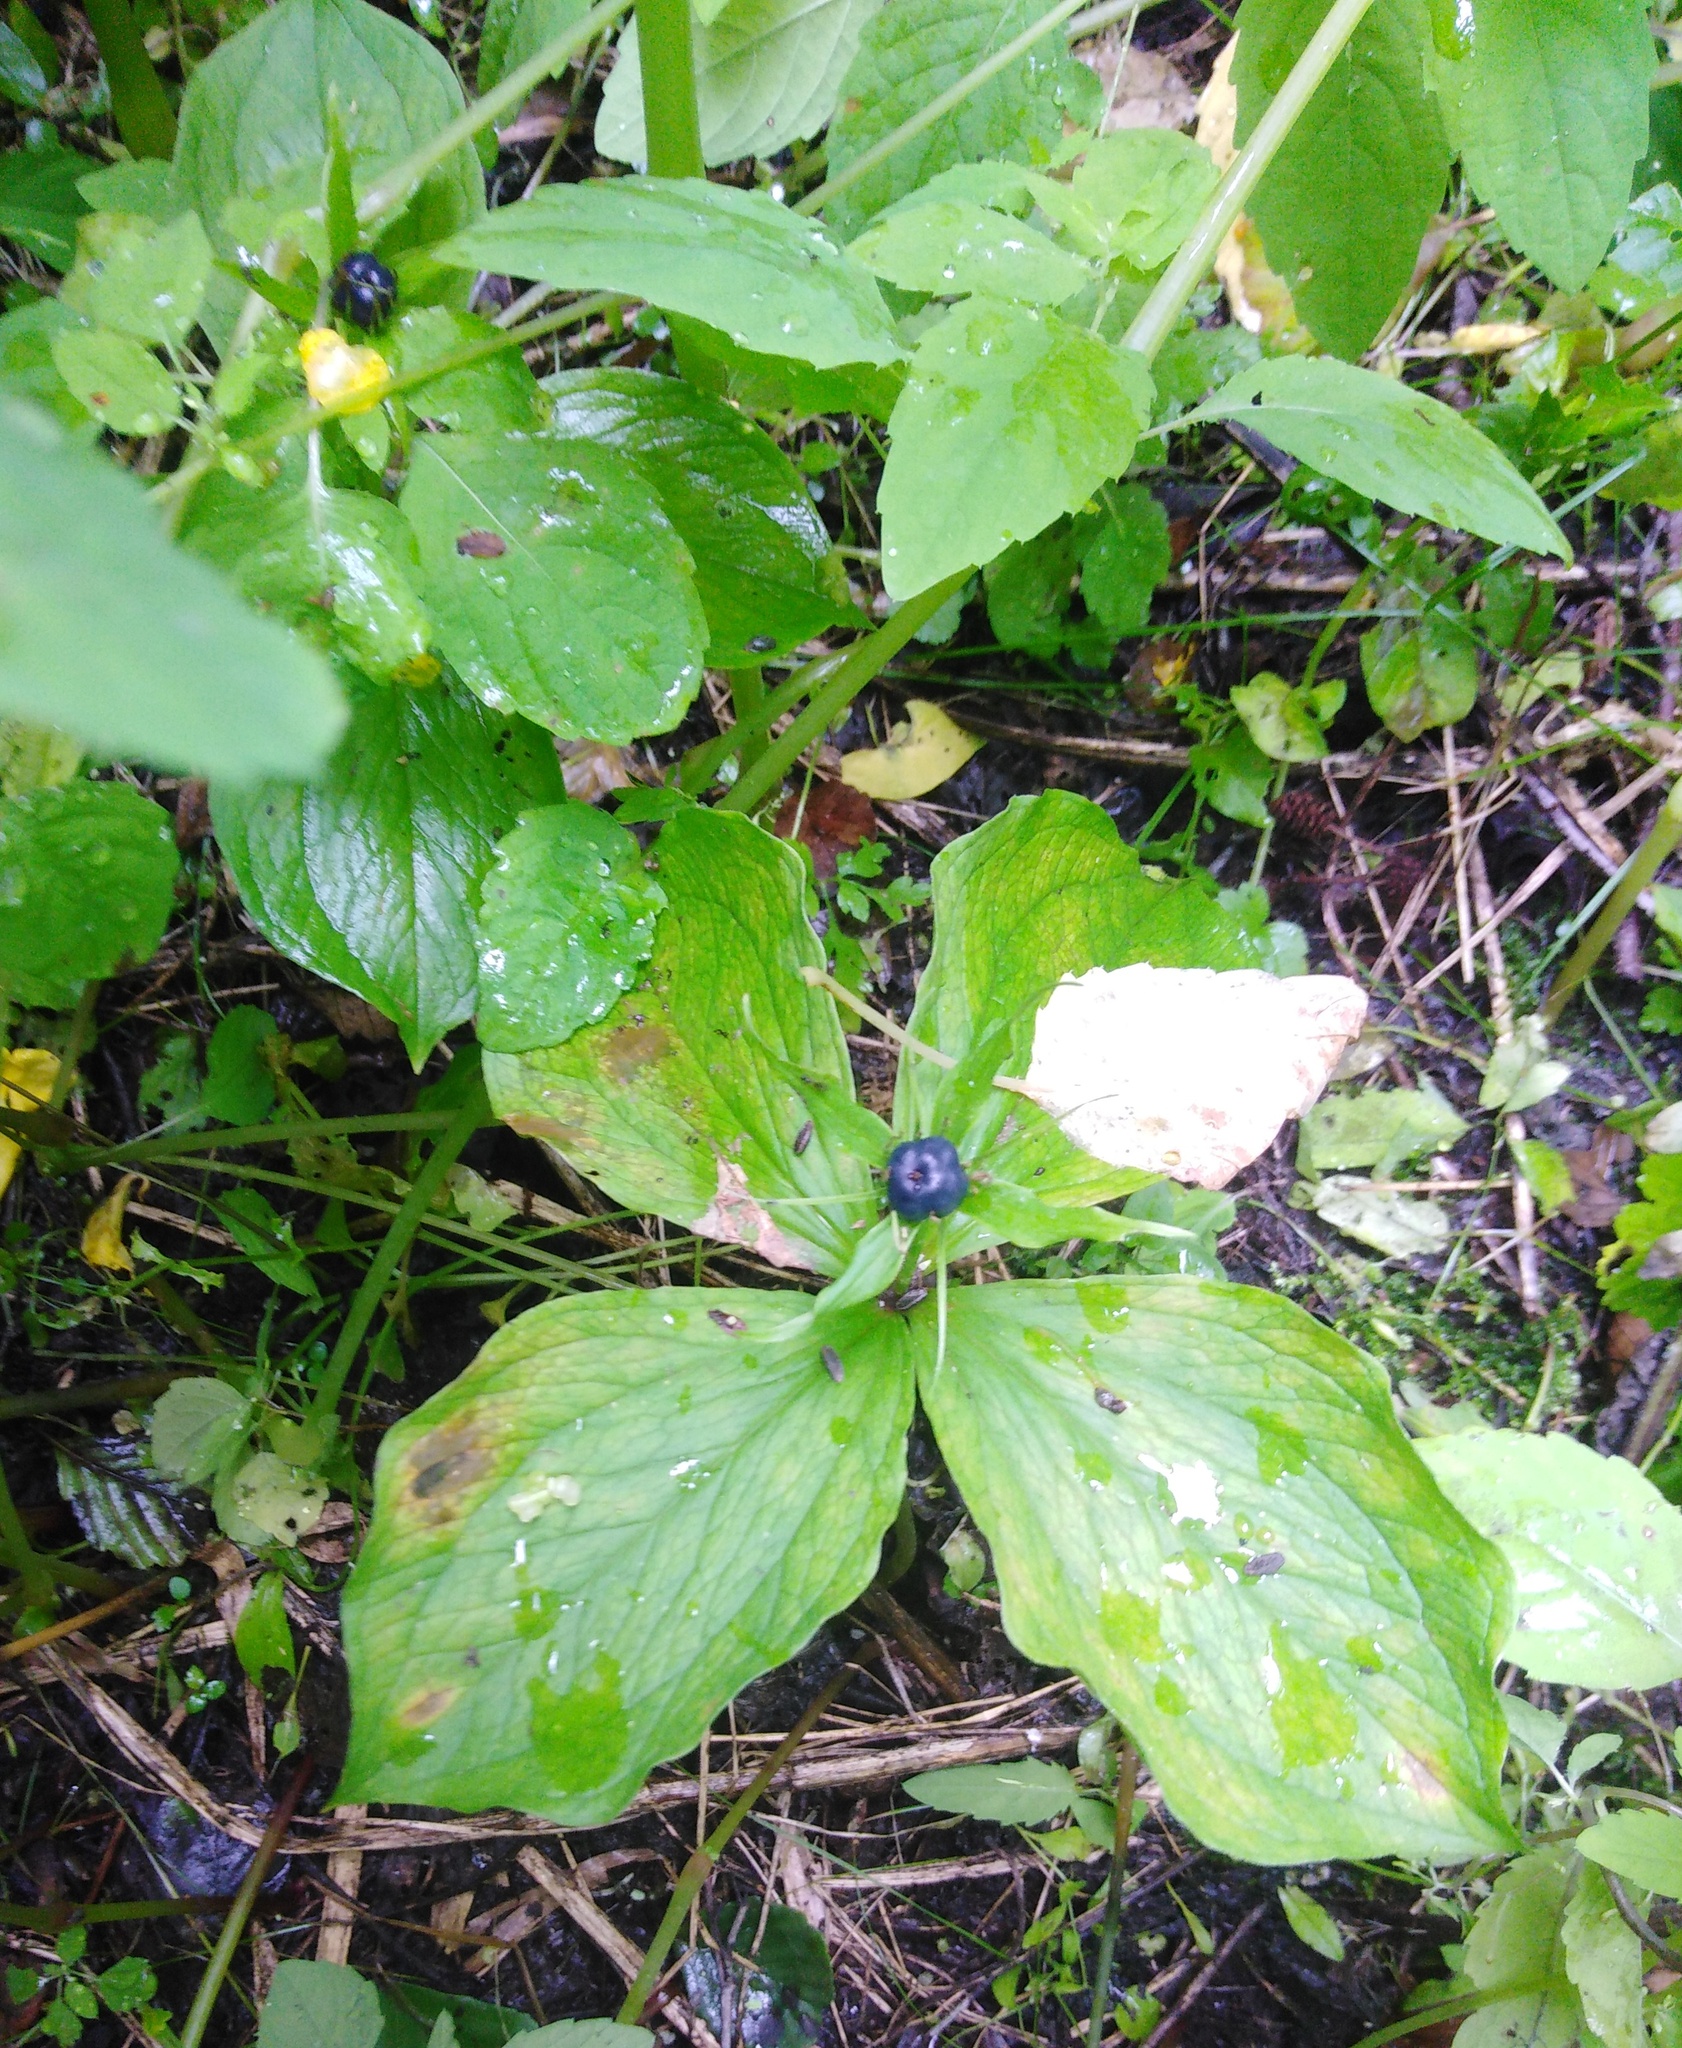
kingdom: Plantae
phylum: Tracheophyta
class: Liliopsida
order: Liliales
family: Melanthiaceae
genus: Paris
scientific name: Paris quadrifolia
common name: Herb-paris
